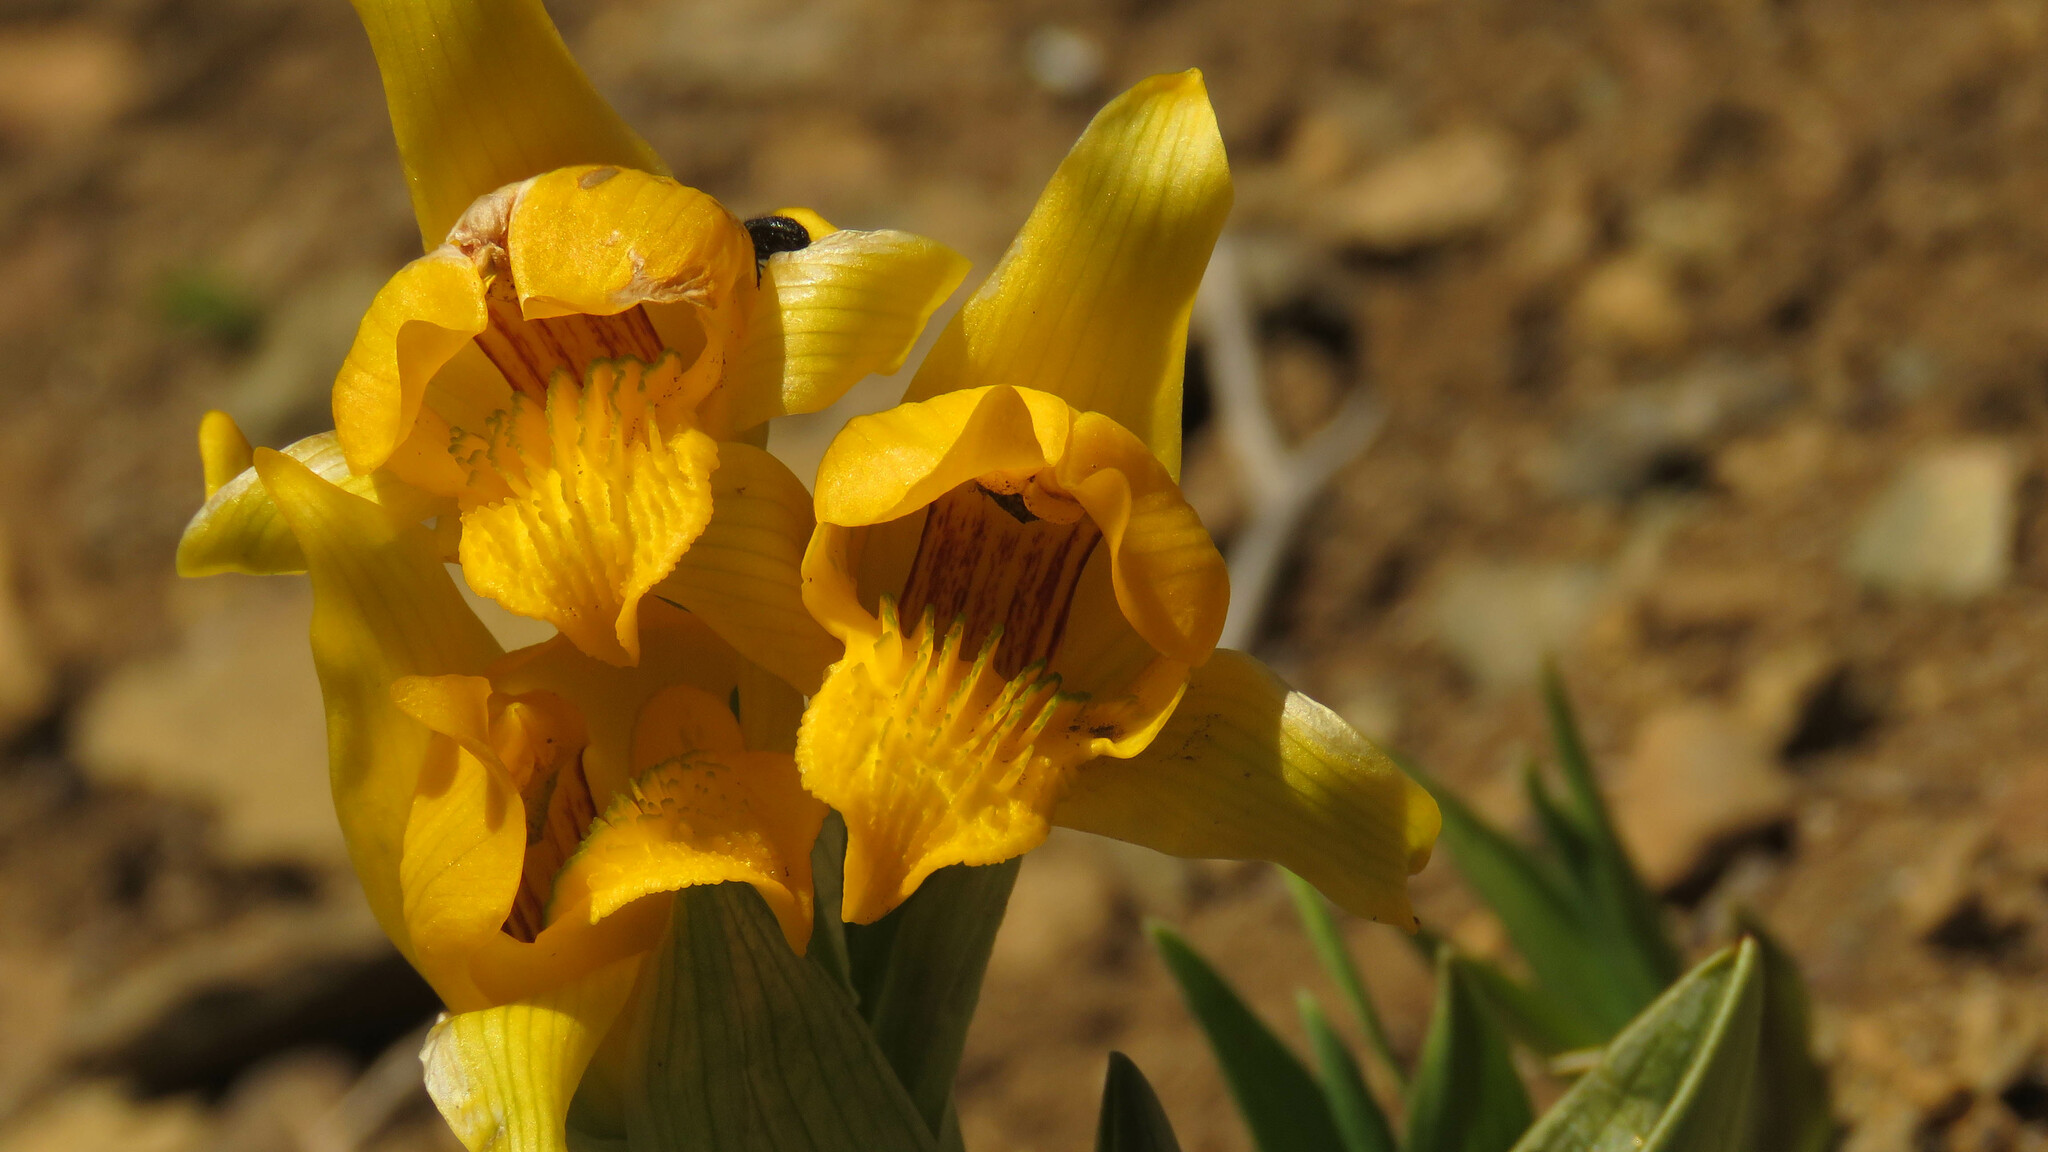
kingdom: Plantae
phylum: Tracheophyta
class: Liliopsida
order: Asparagales
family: Orchidaceae
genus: Chloraea
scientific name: Chloraea alpina
